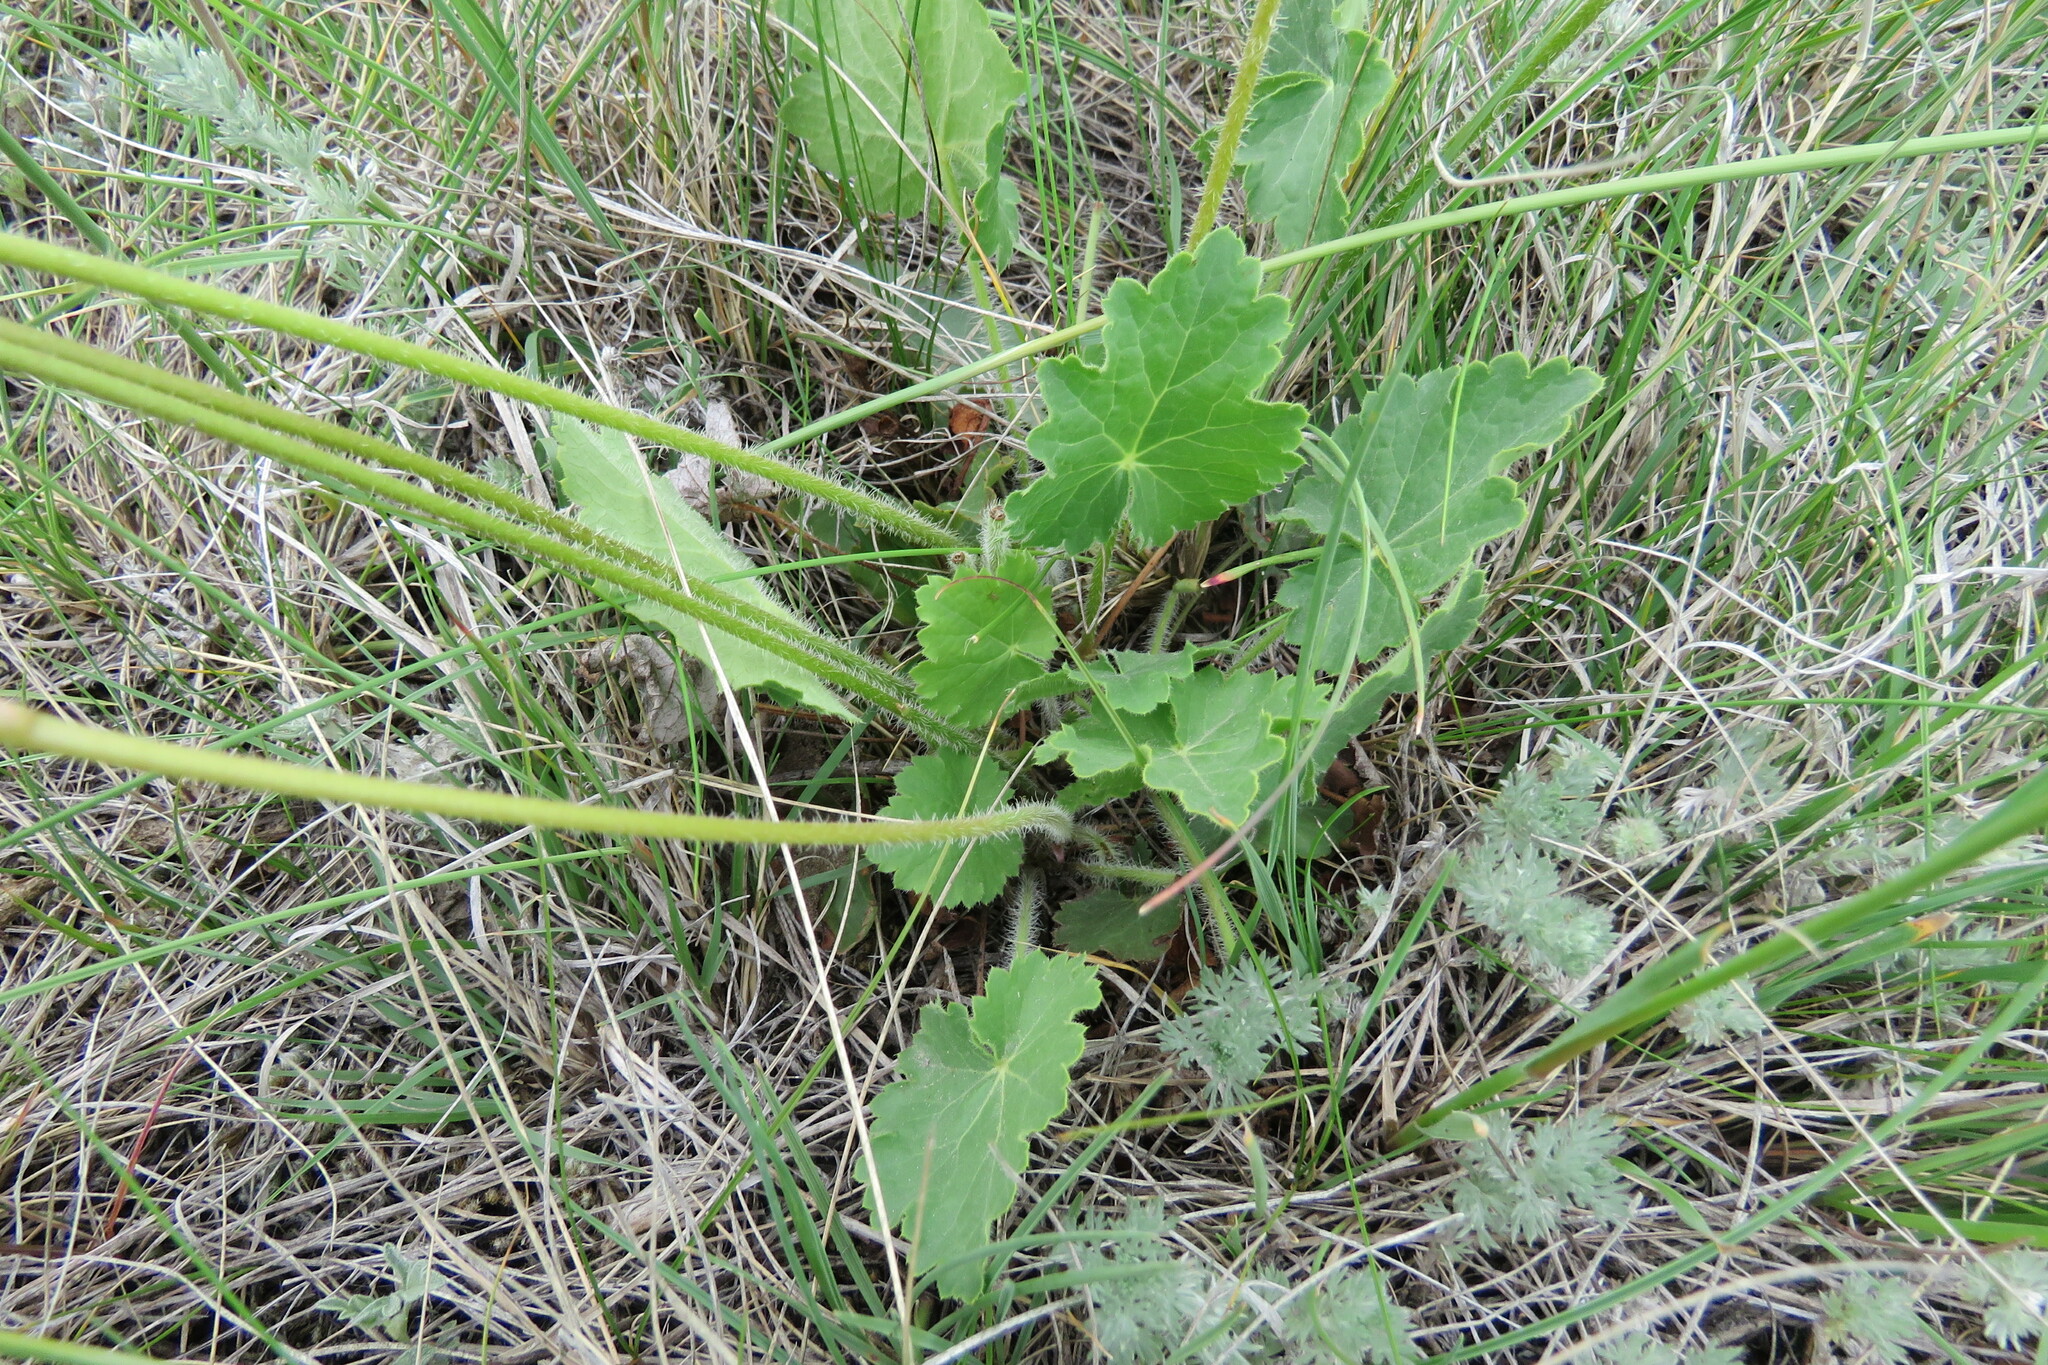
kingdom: Plantae
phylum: Tracheophyta
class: Magnoliopsida
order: Saxifragales
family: Saxifragaceae
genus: Heuchera
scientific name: Heuchera richardsonii
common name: Richardson's alumroot
